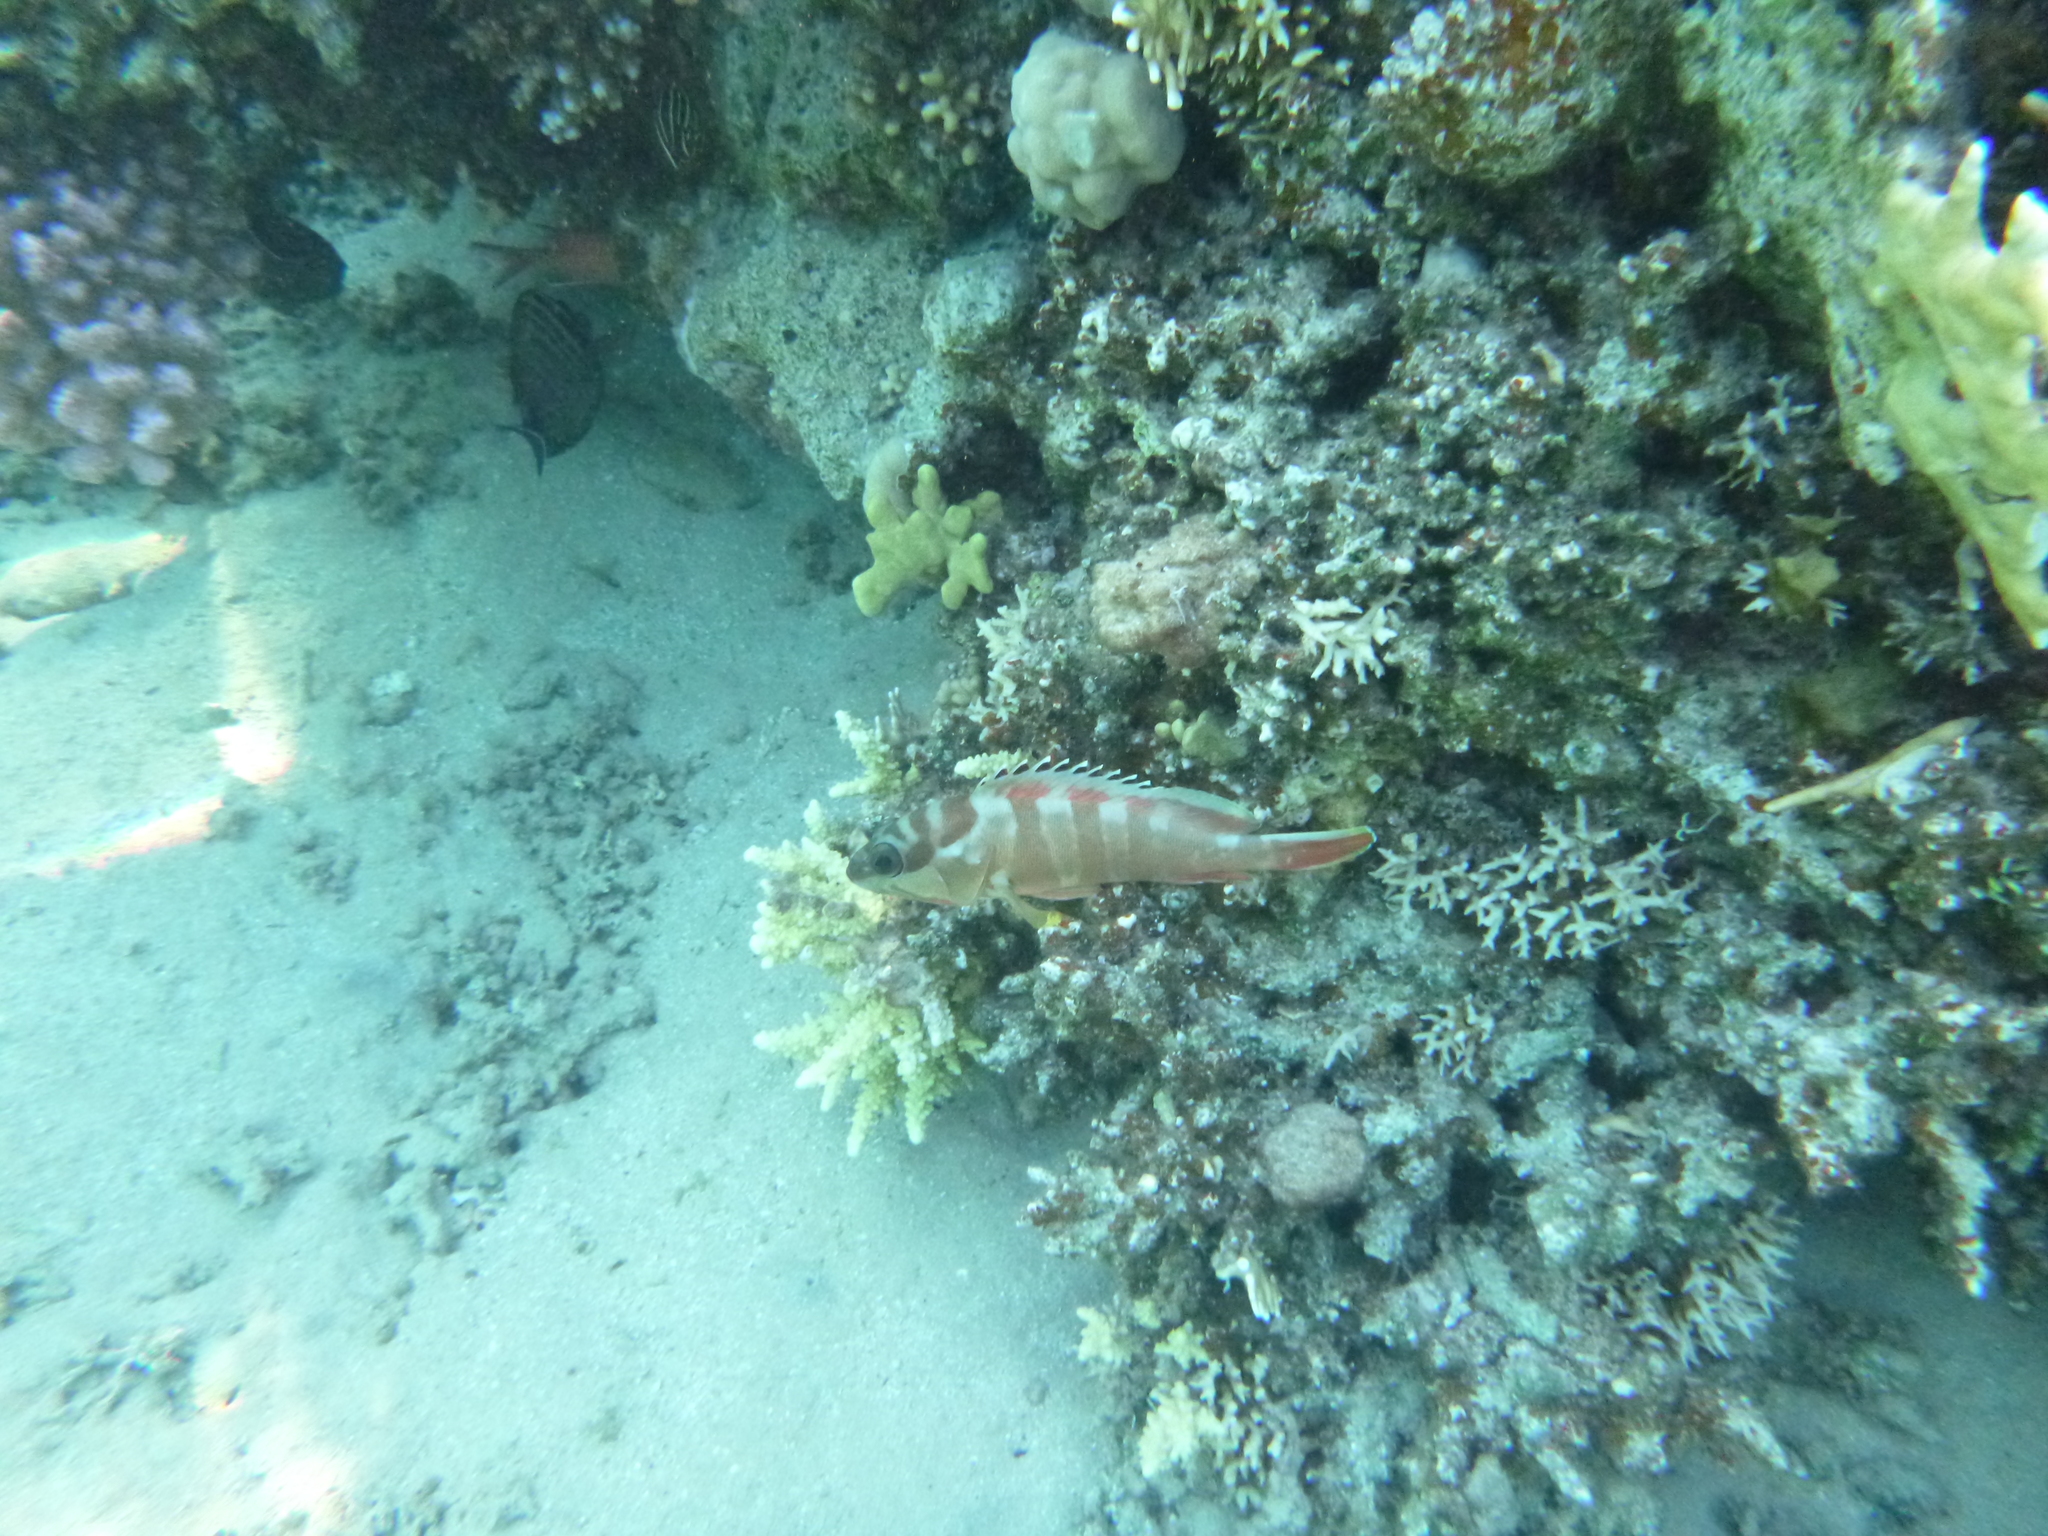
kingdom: Animalia
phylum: Chordata
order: Perciformes
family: Serranidae
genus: Epinephelus
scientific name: Epinephelus fasciatus
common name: Blacktip grouper
